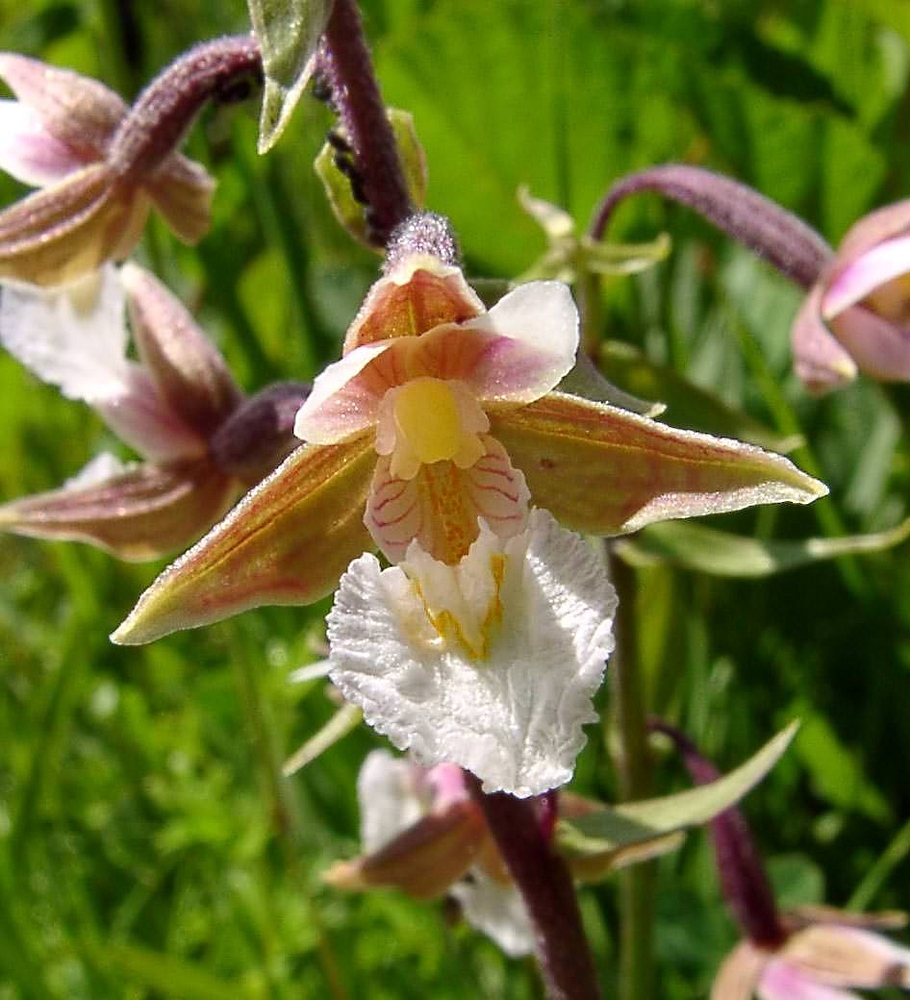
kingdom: Plantae
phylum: Tracheophyta
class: Liliopsida
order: Asparagales
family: Orchidaceae
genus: Epipactis
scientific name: Epipactis palustris
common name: Marsh helleborine
